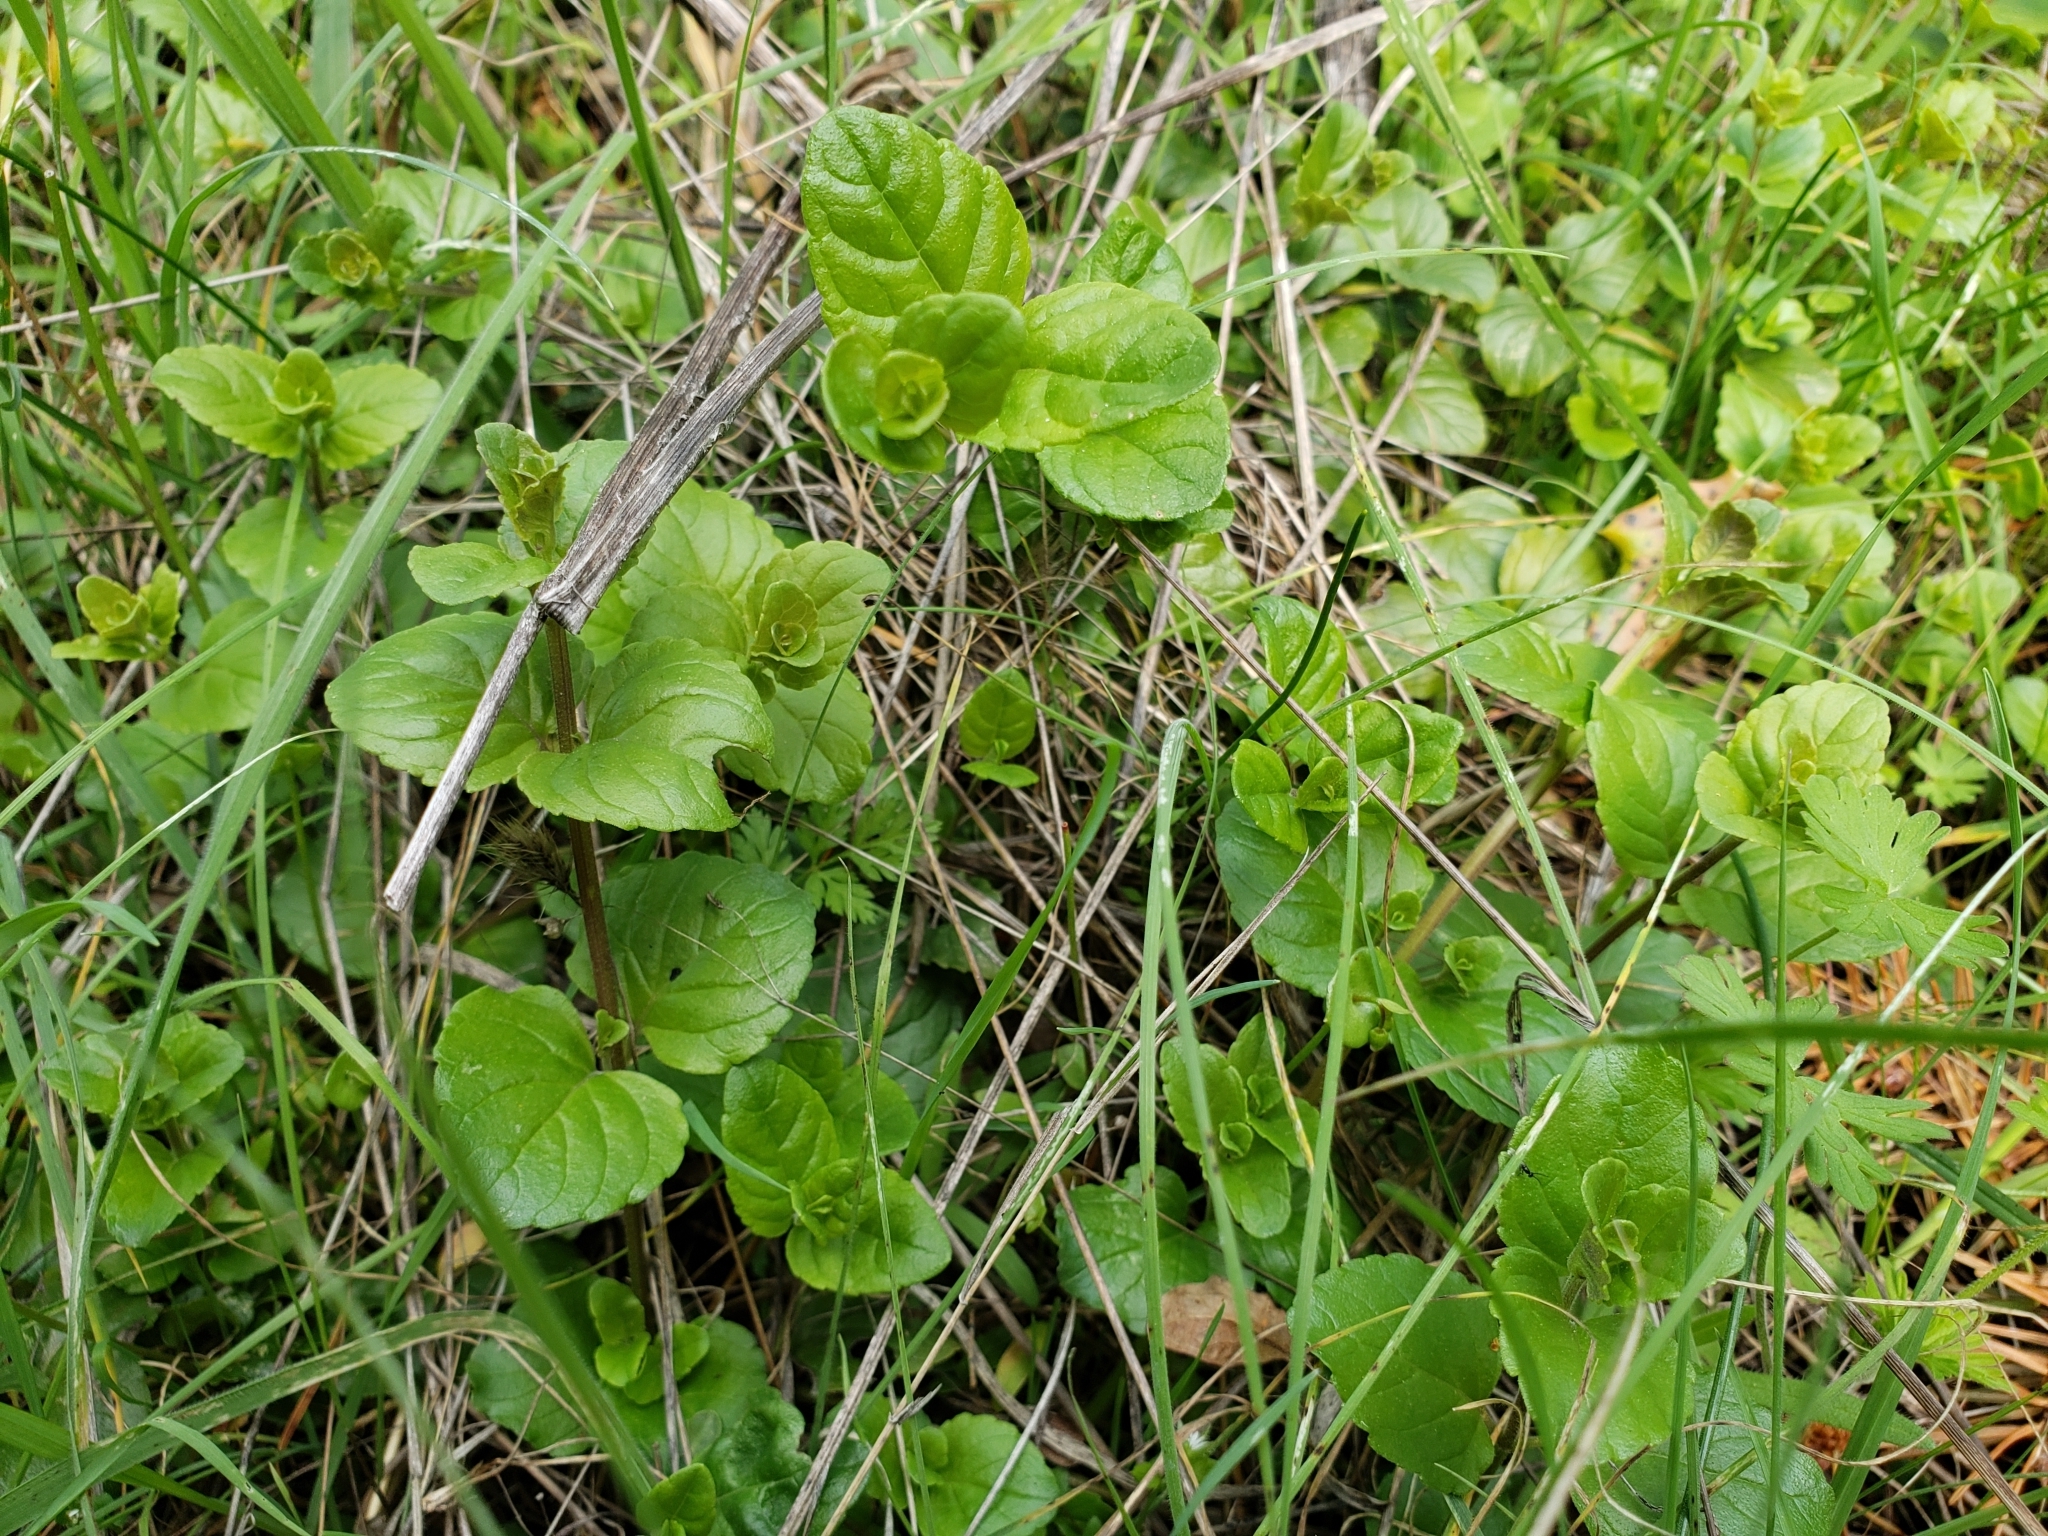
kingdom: Plantae
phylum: Tracheophyta
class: Magnoliopsida
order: Lamiales
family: Lamiaceae
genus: Micromeria
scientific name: Micromeria douglasii
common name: Yerba buena
